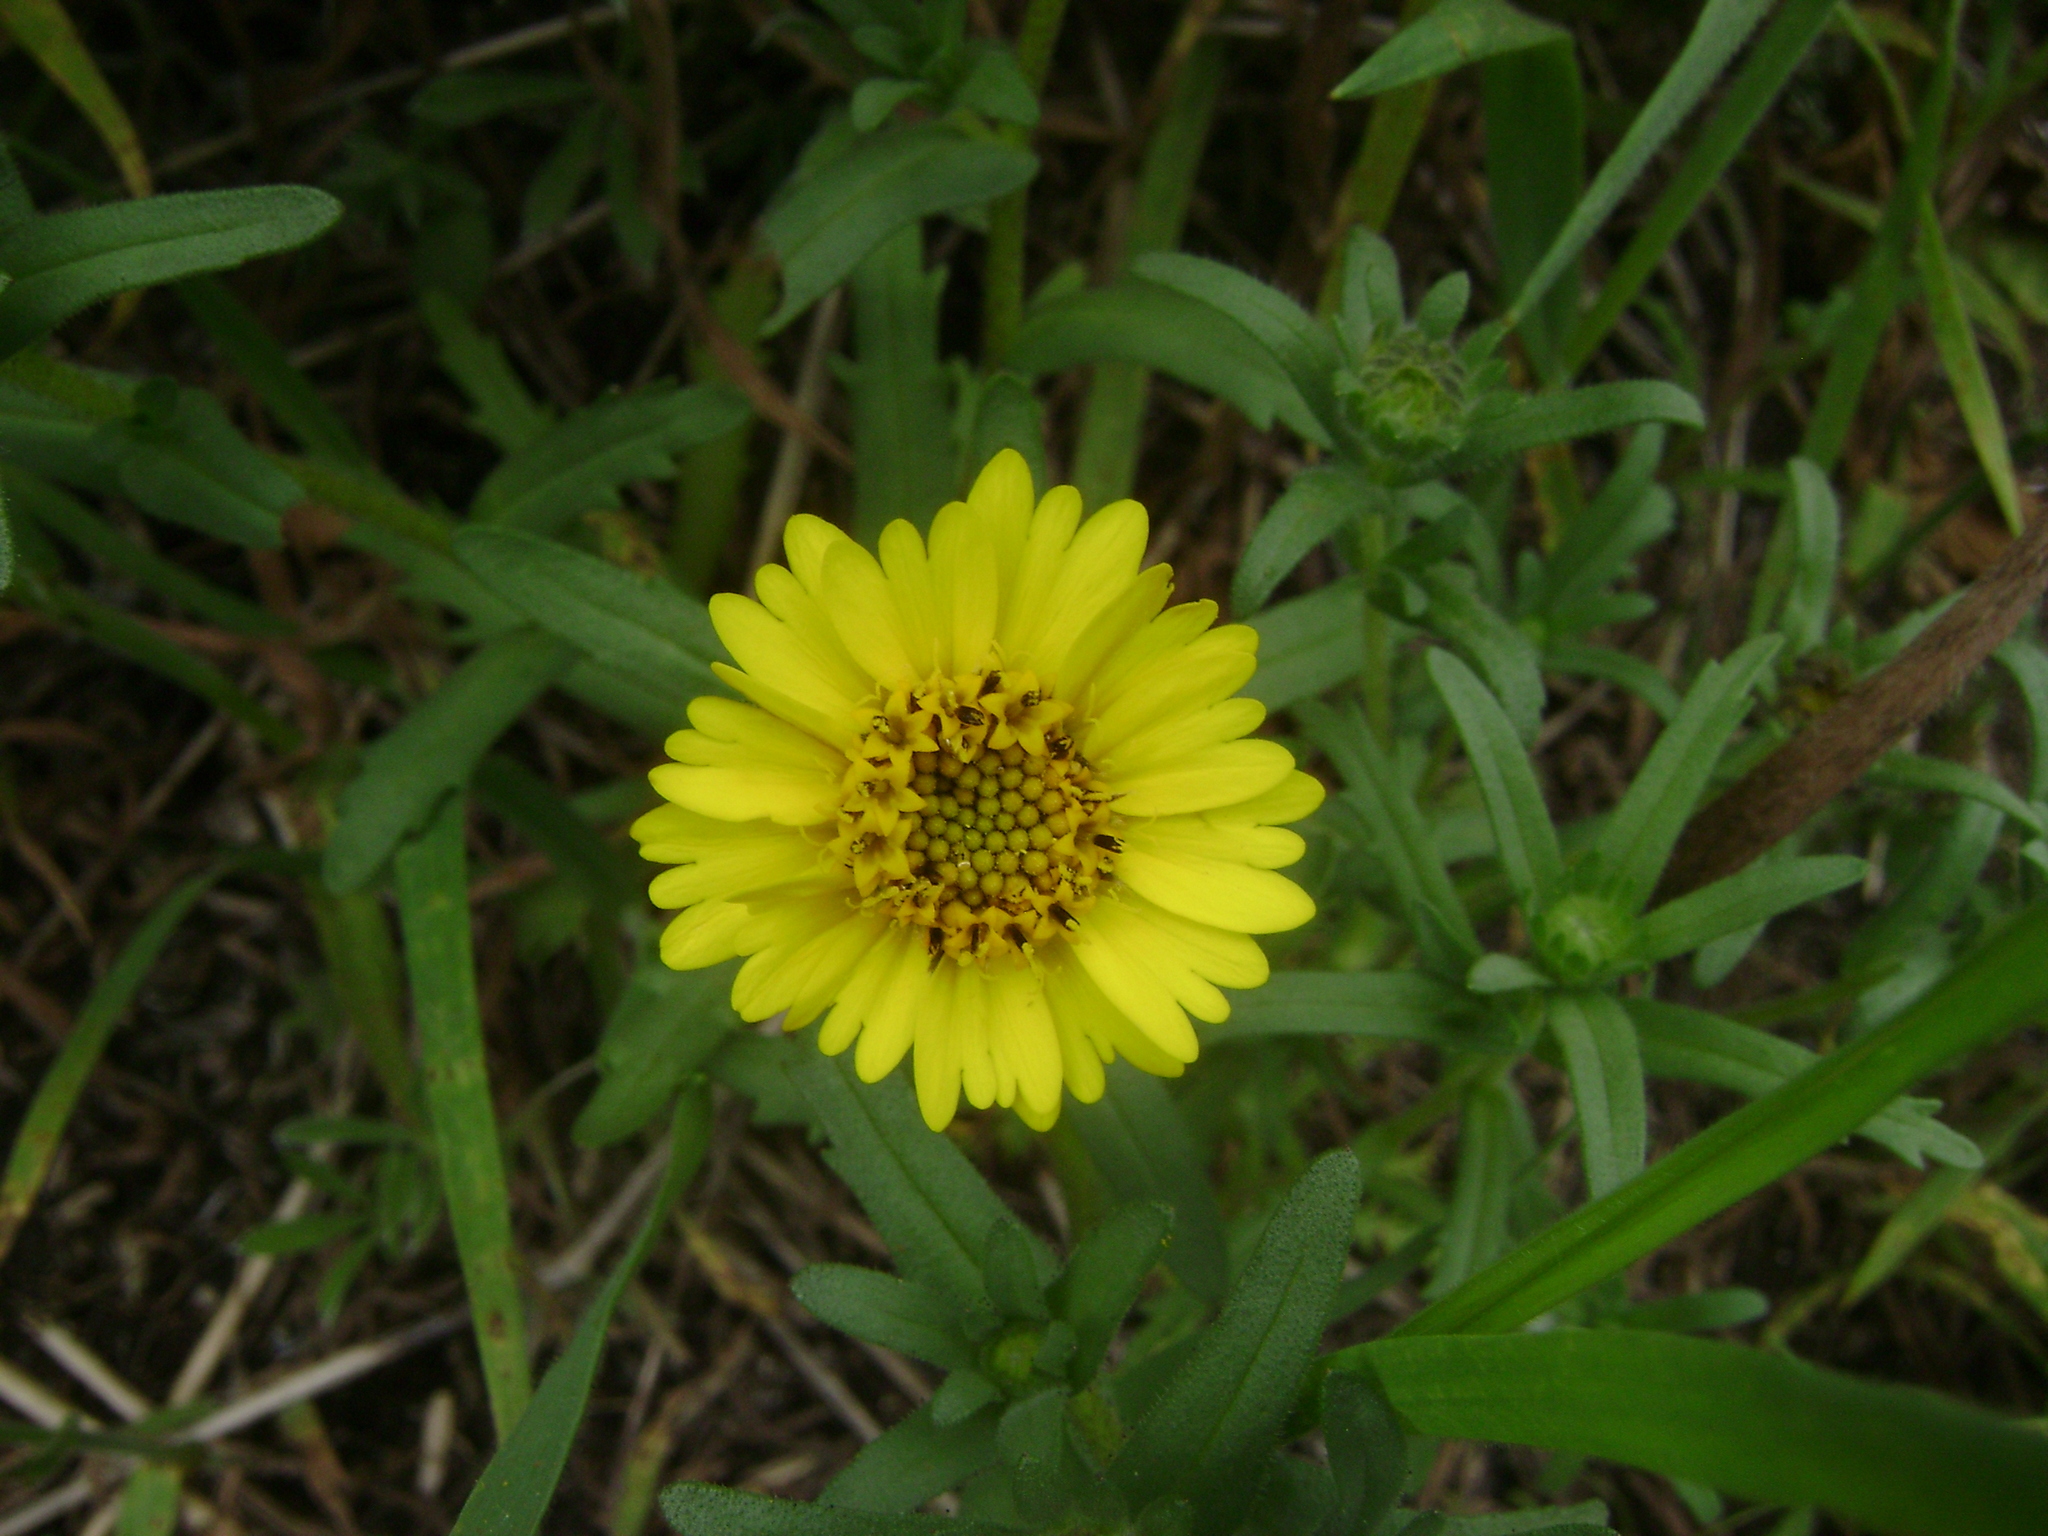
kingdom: Plantae
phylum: Tracheophyta
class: Magnoliopsida
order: Asterales
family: Asteraceae
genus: Layia
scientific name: Layia platyglossa
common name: Tidy-tips
